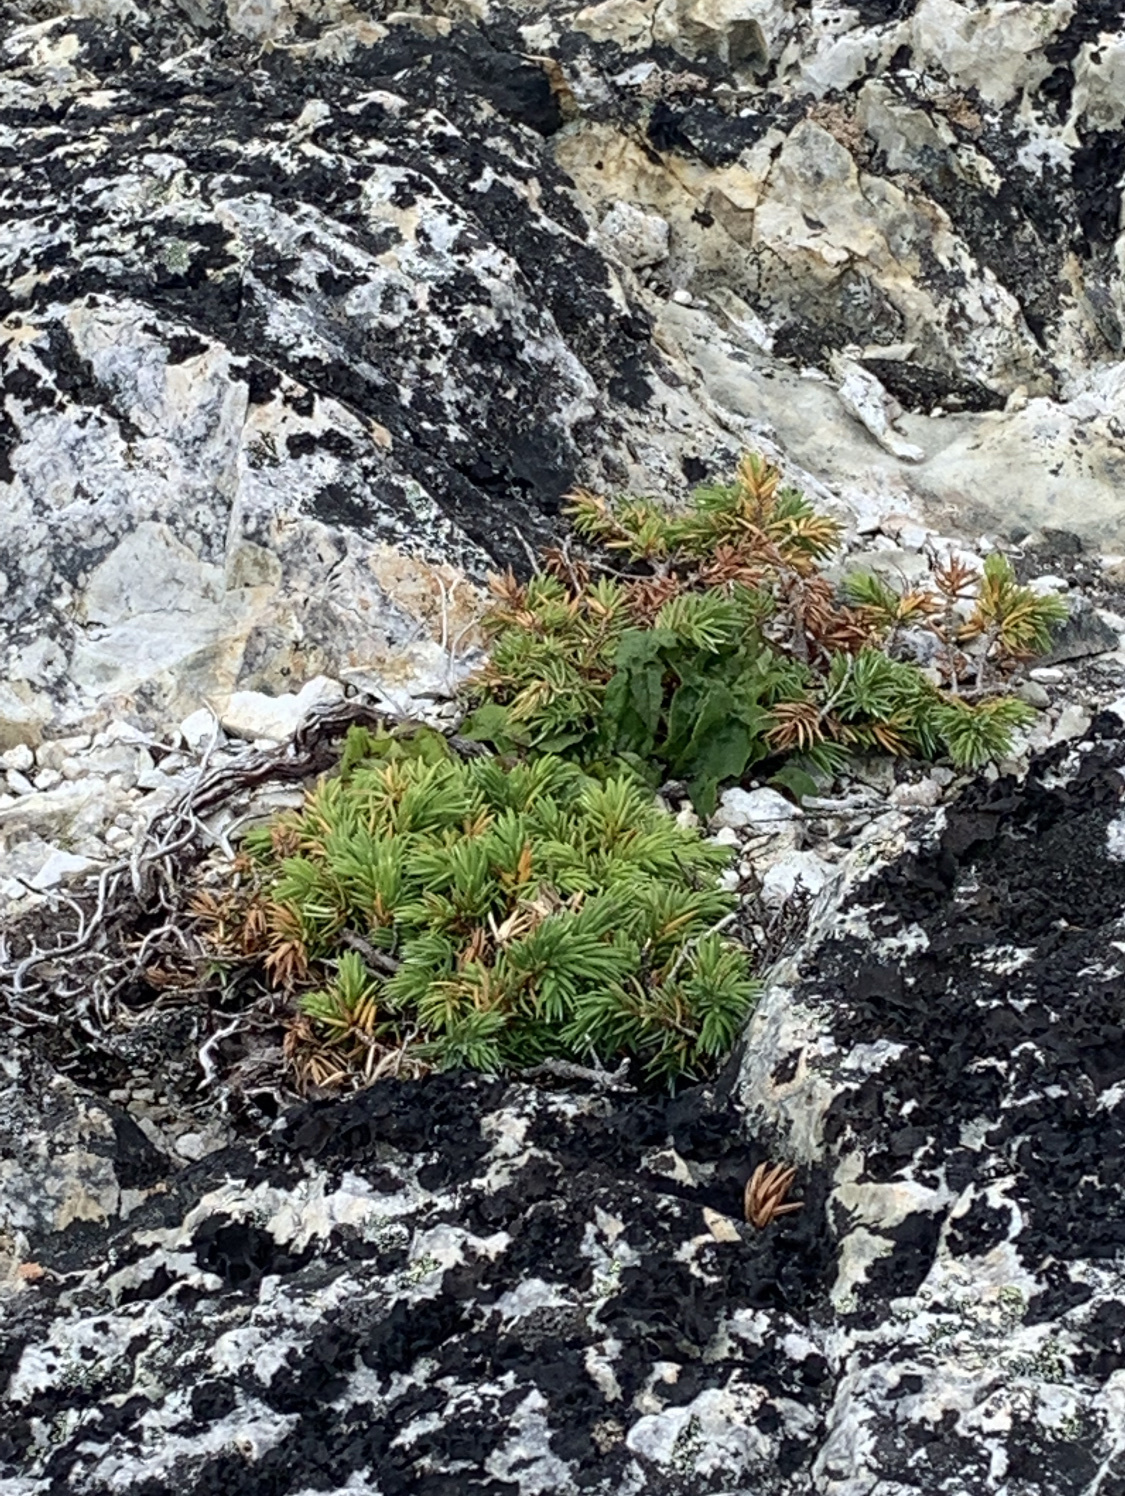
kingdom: Plantae
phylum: Tracheophyta
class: Pinopsida
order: Pinales
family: Cupressaceae
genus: Juniperus
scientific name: Juniperus communis
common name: Common juniper
